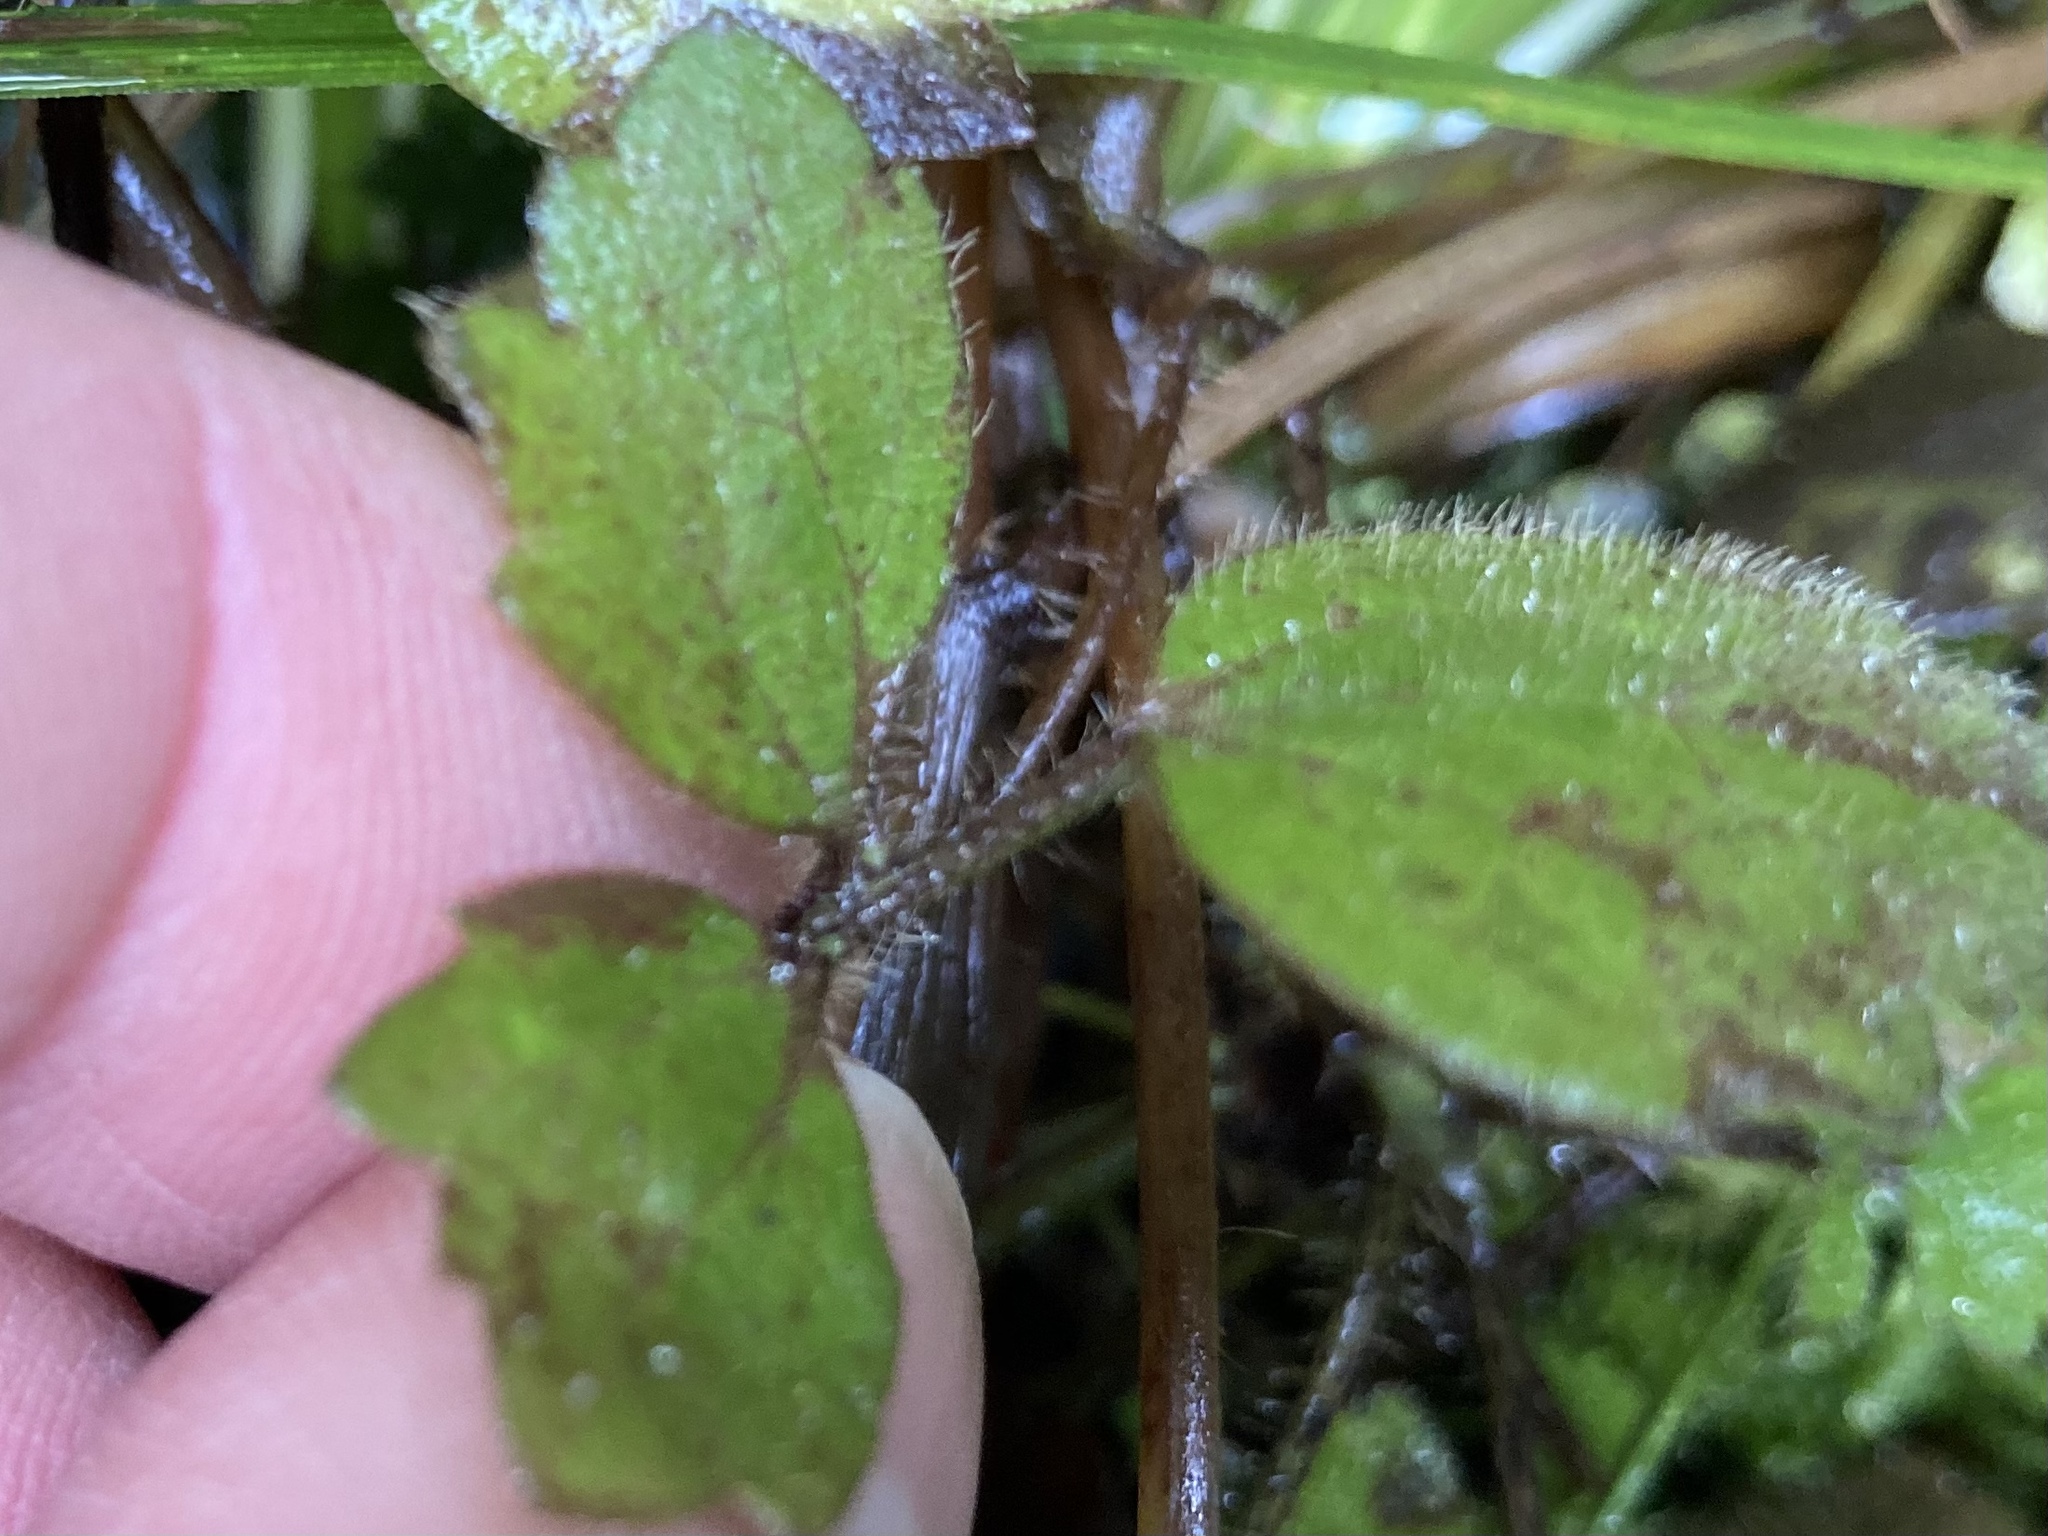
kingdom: Plantae
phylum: Tracheophyta
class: Magnoliopsida
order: Ranunculales
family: Ranunculaceae
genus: Ranunculus
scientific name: Ranunculus reflexus
